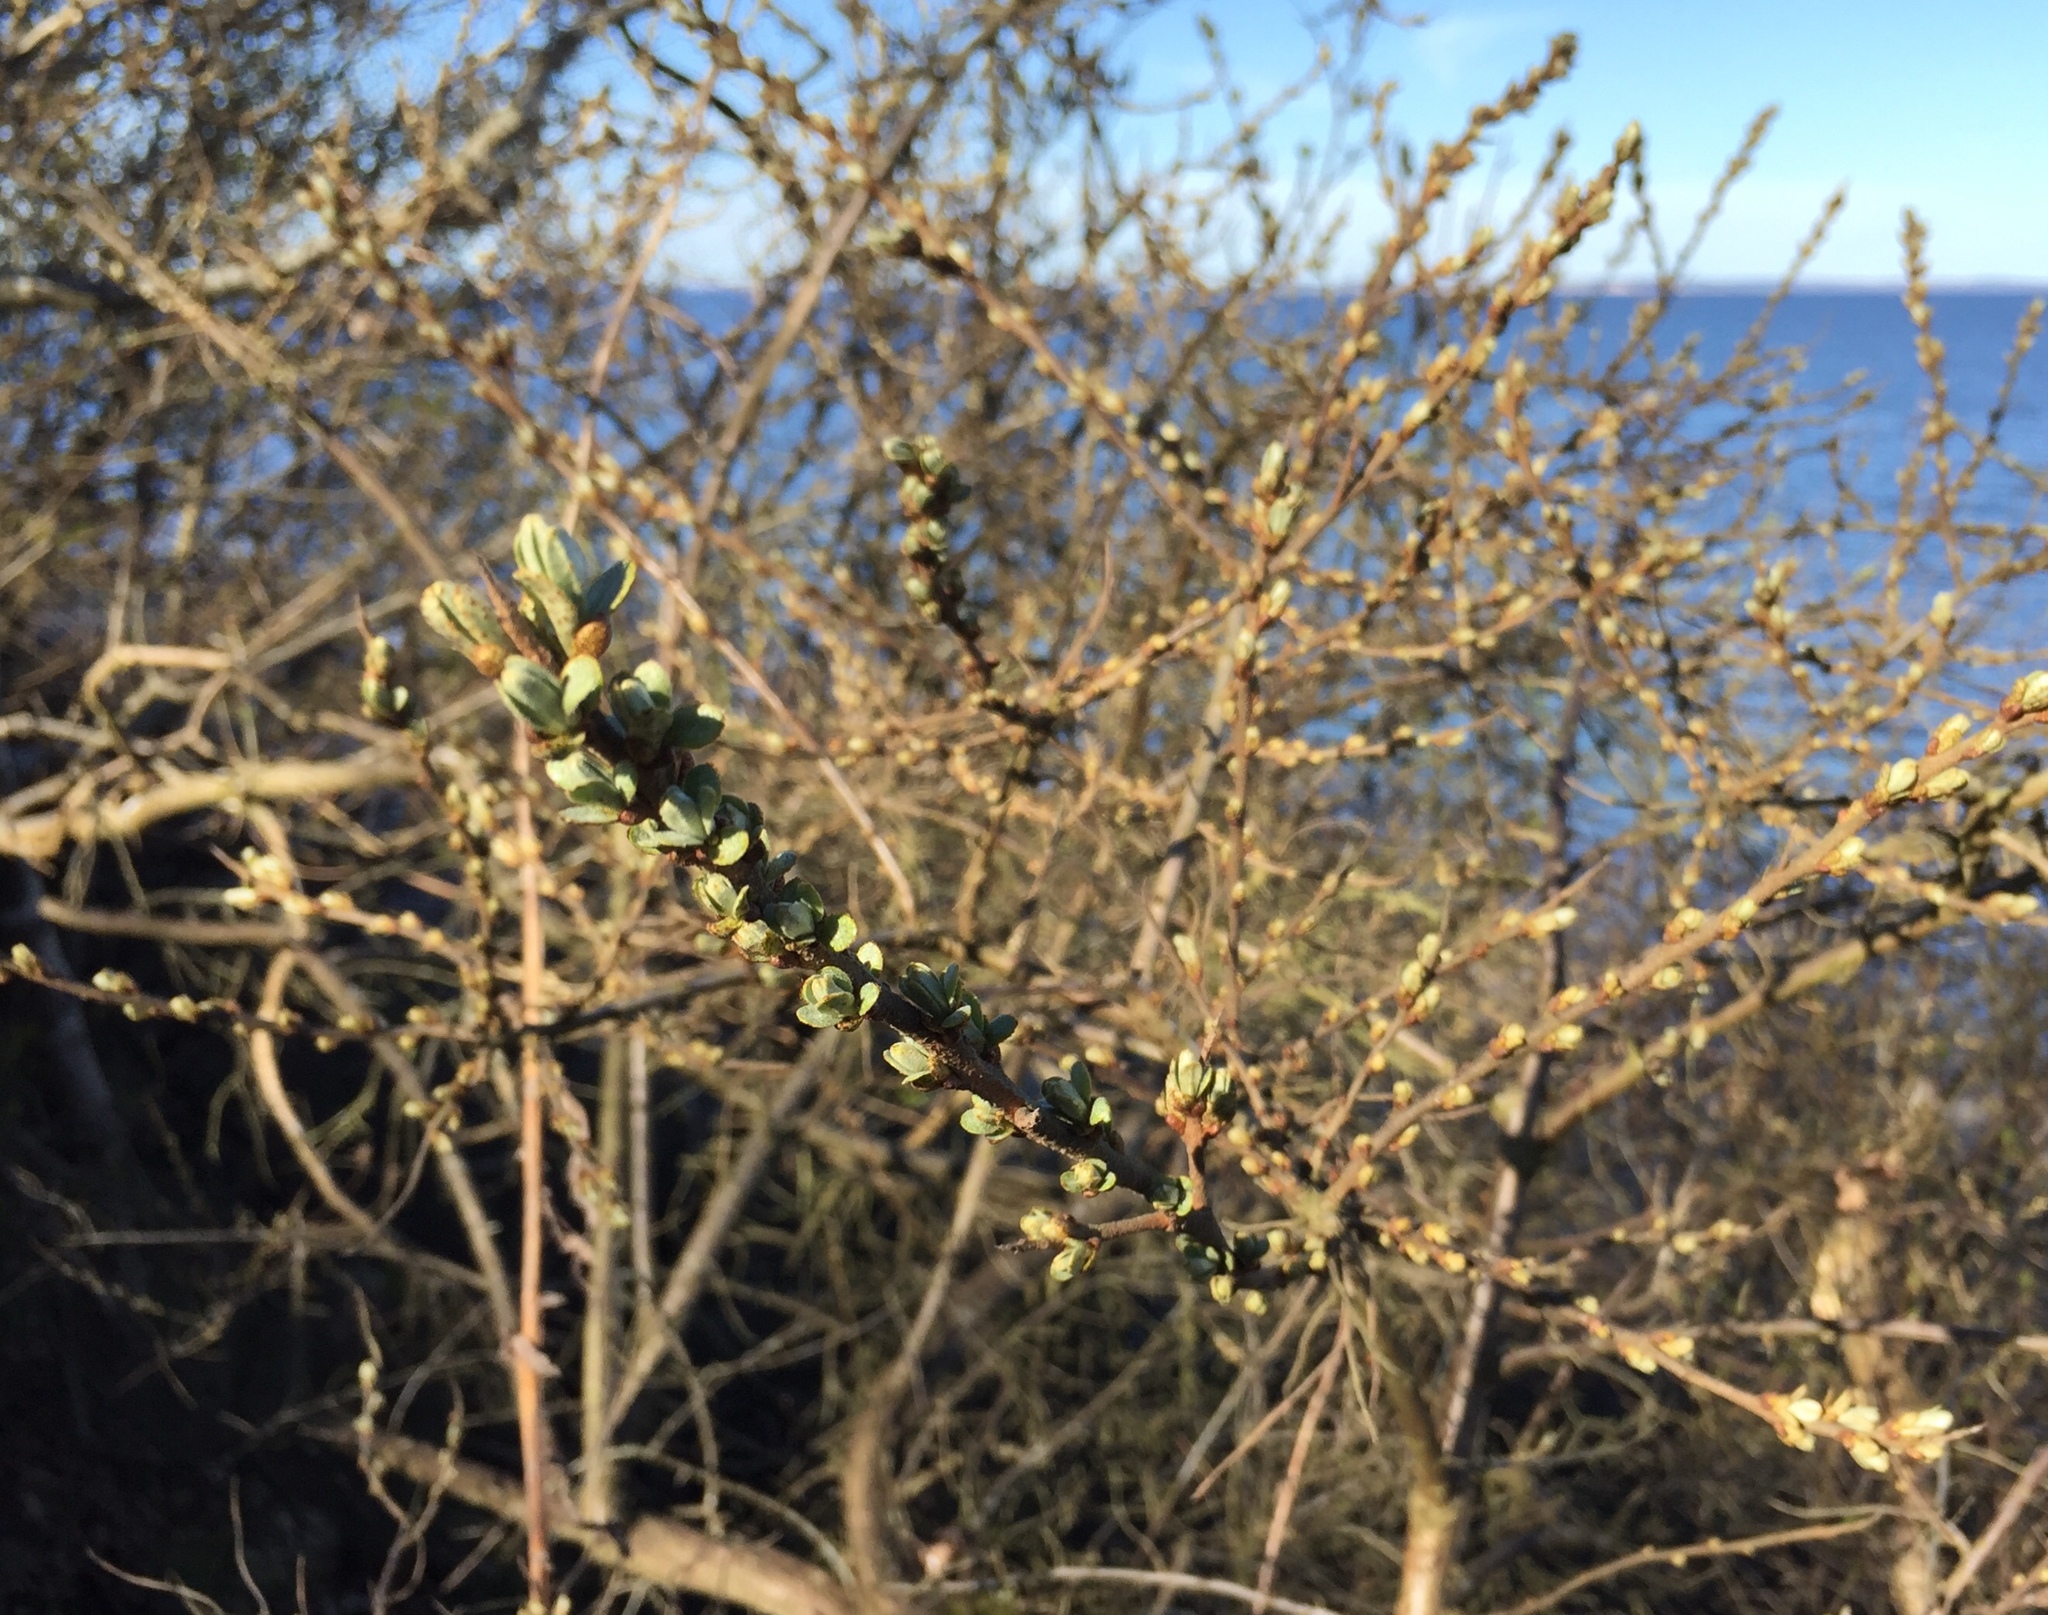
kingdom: Plantae
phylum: Tracheophyta
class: Magnoliopsida
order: Rosales
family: Elaeagnaceae
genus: Hippophae
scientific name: Hippophae rhamnoides
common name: Sea-buckthorn
